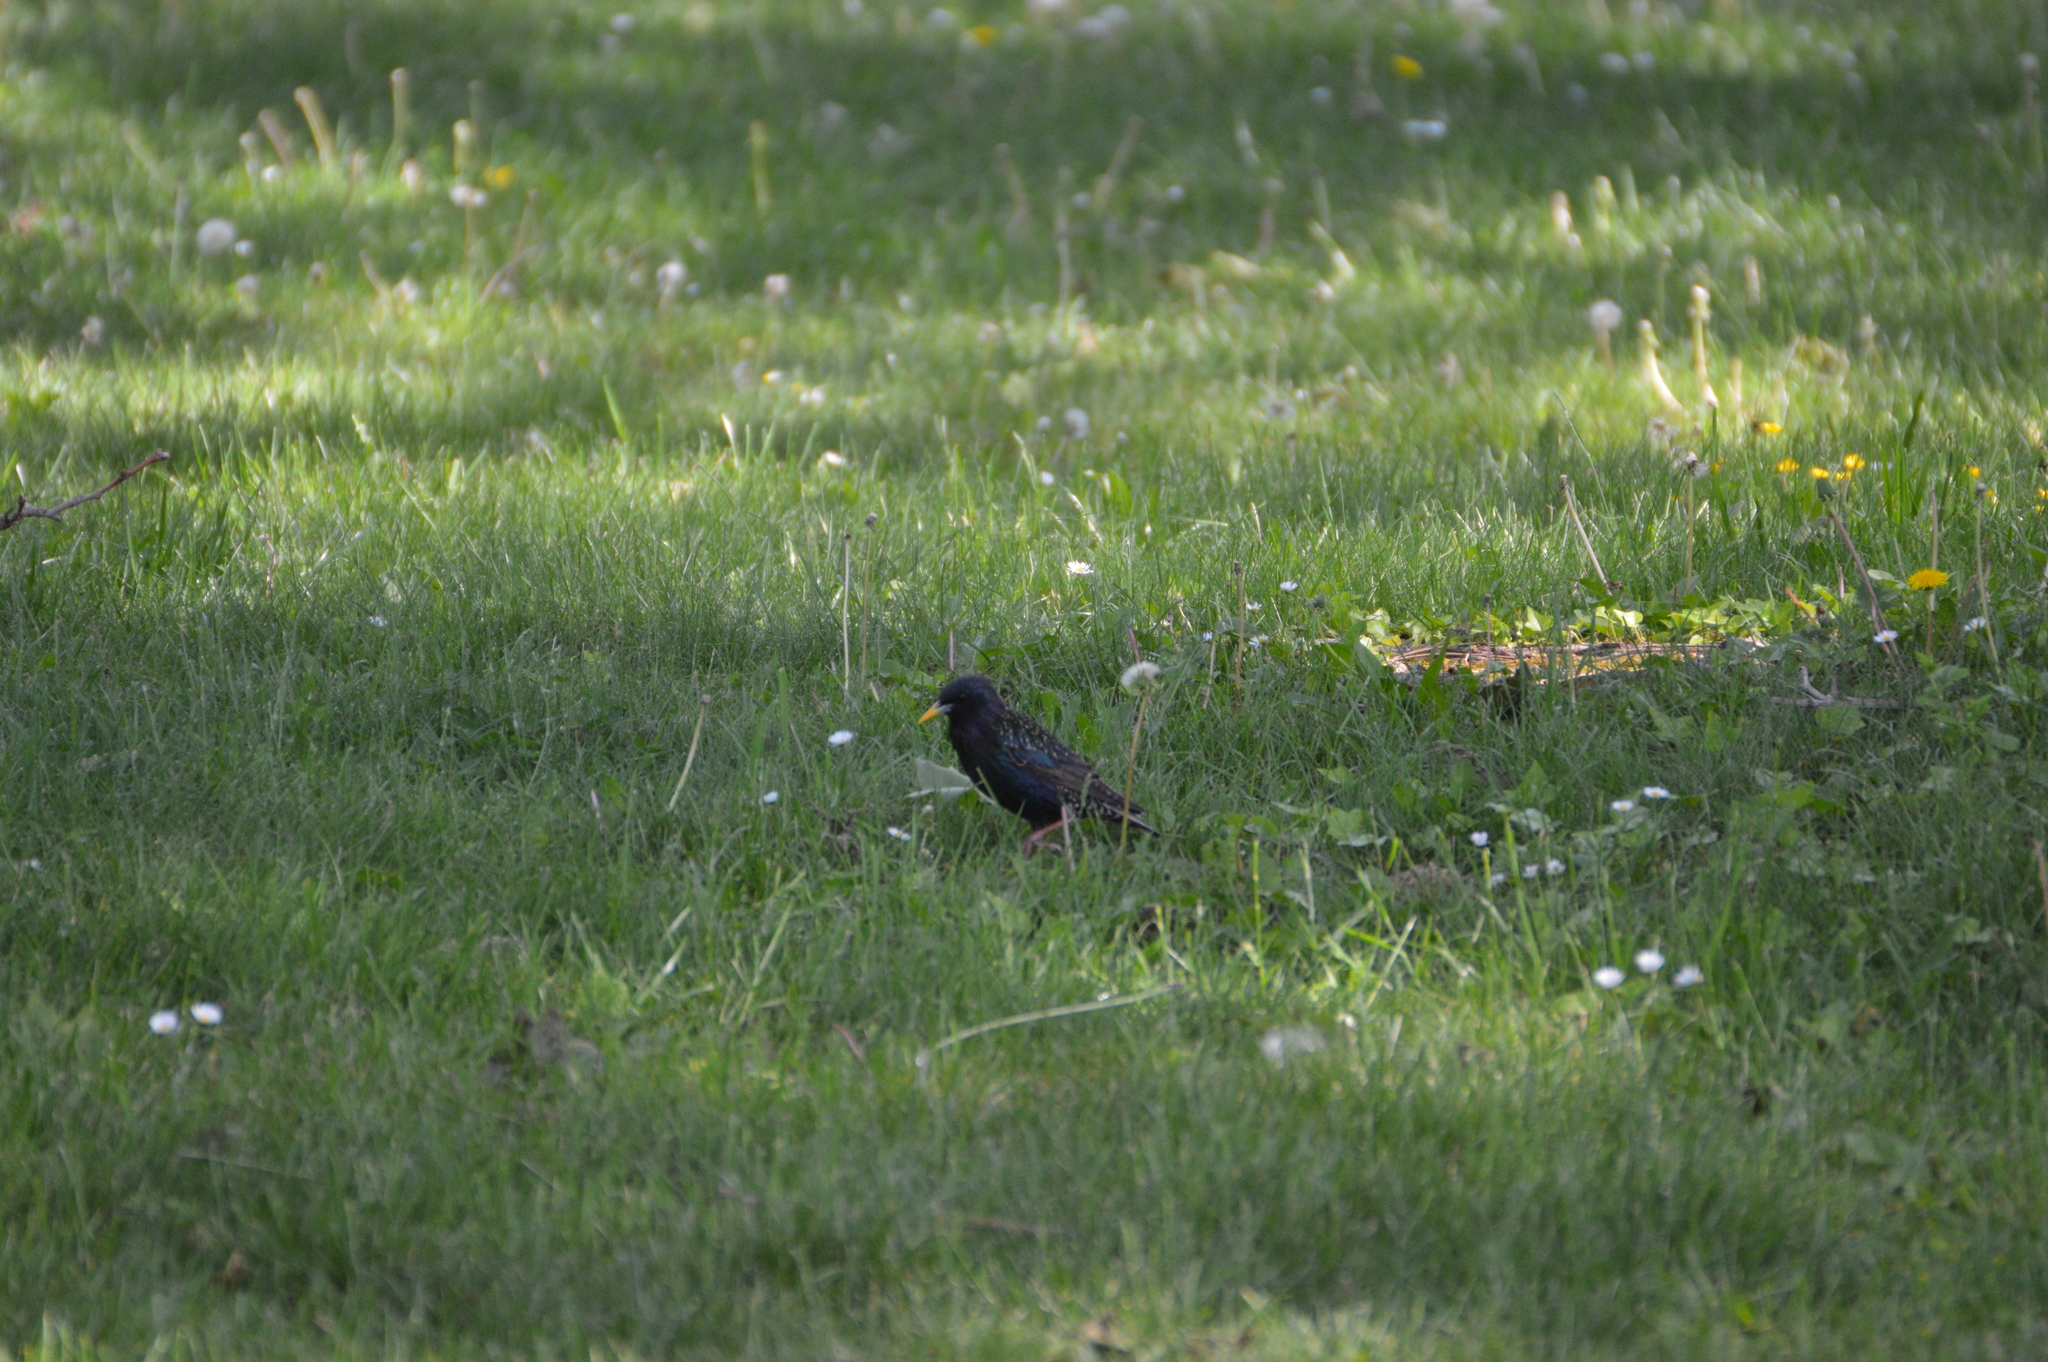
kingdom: Animalia
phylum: Chordata
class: Aves
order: Passeriformes
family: Sturnidae
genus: Sturnus
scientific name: Sturnus vulgaris
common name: Common starling
